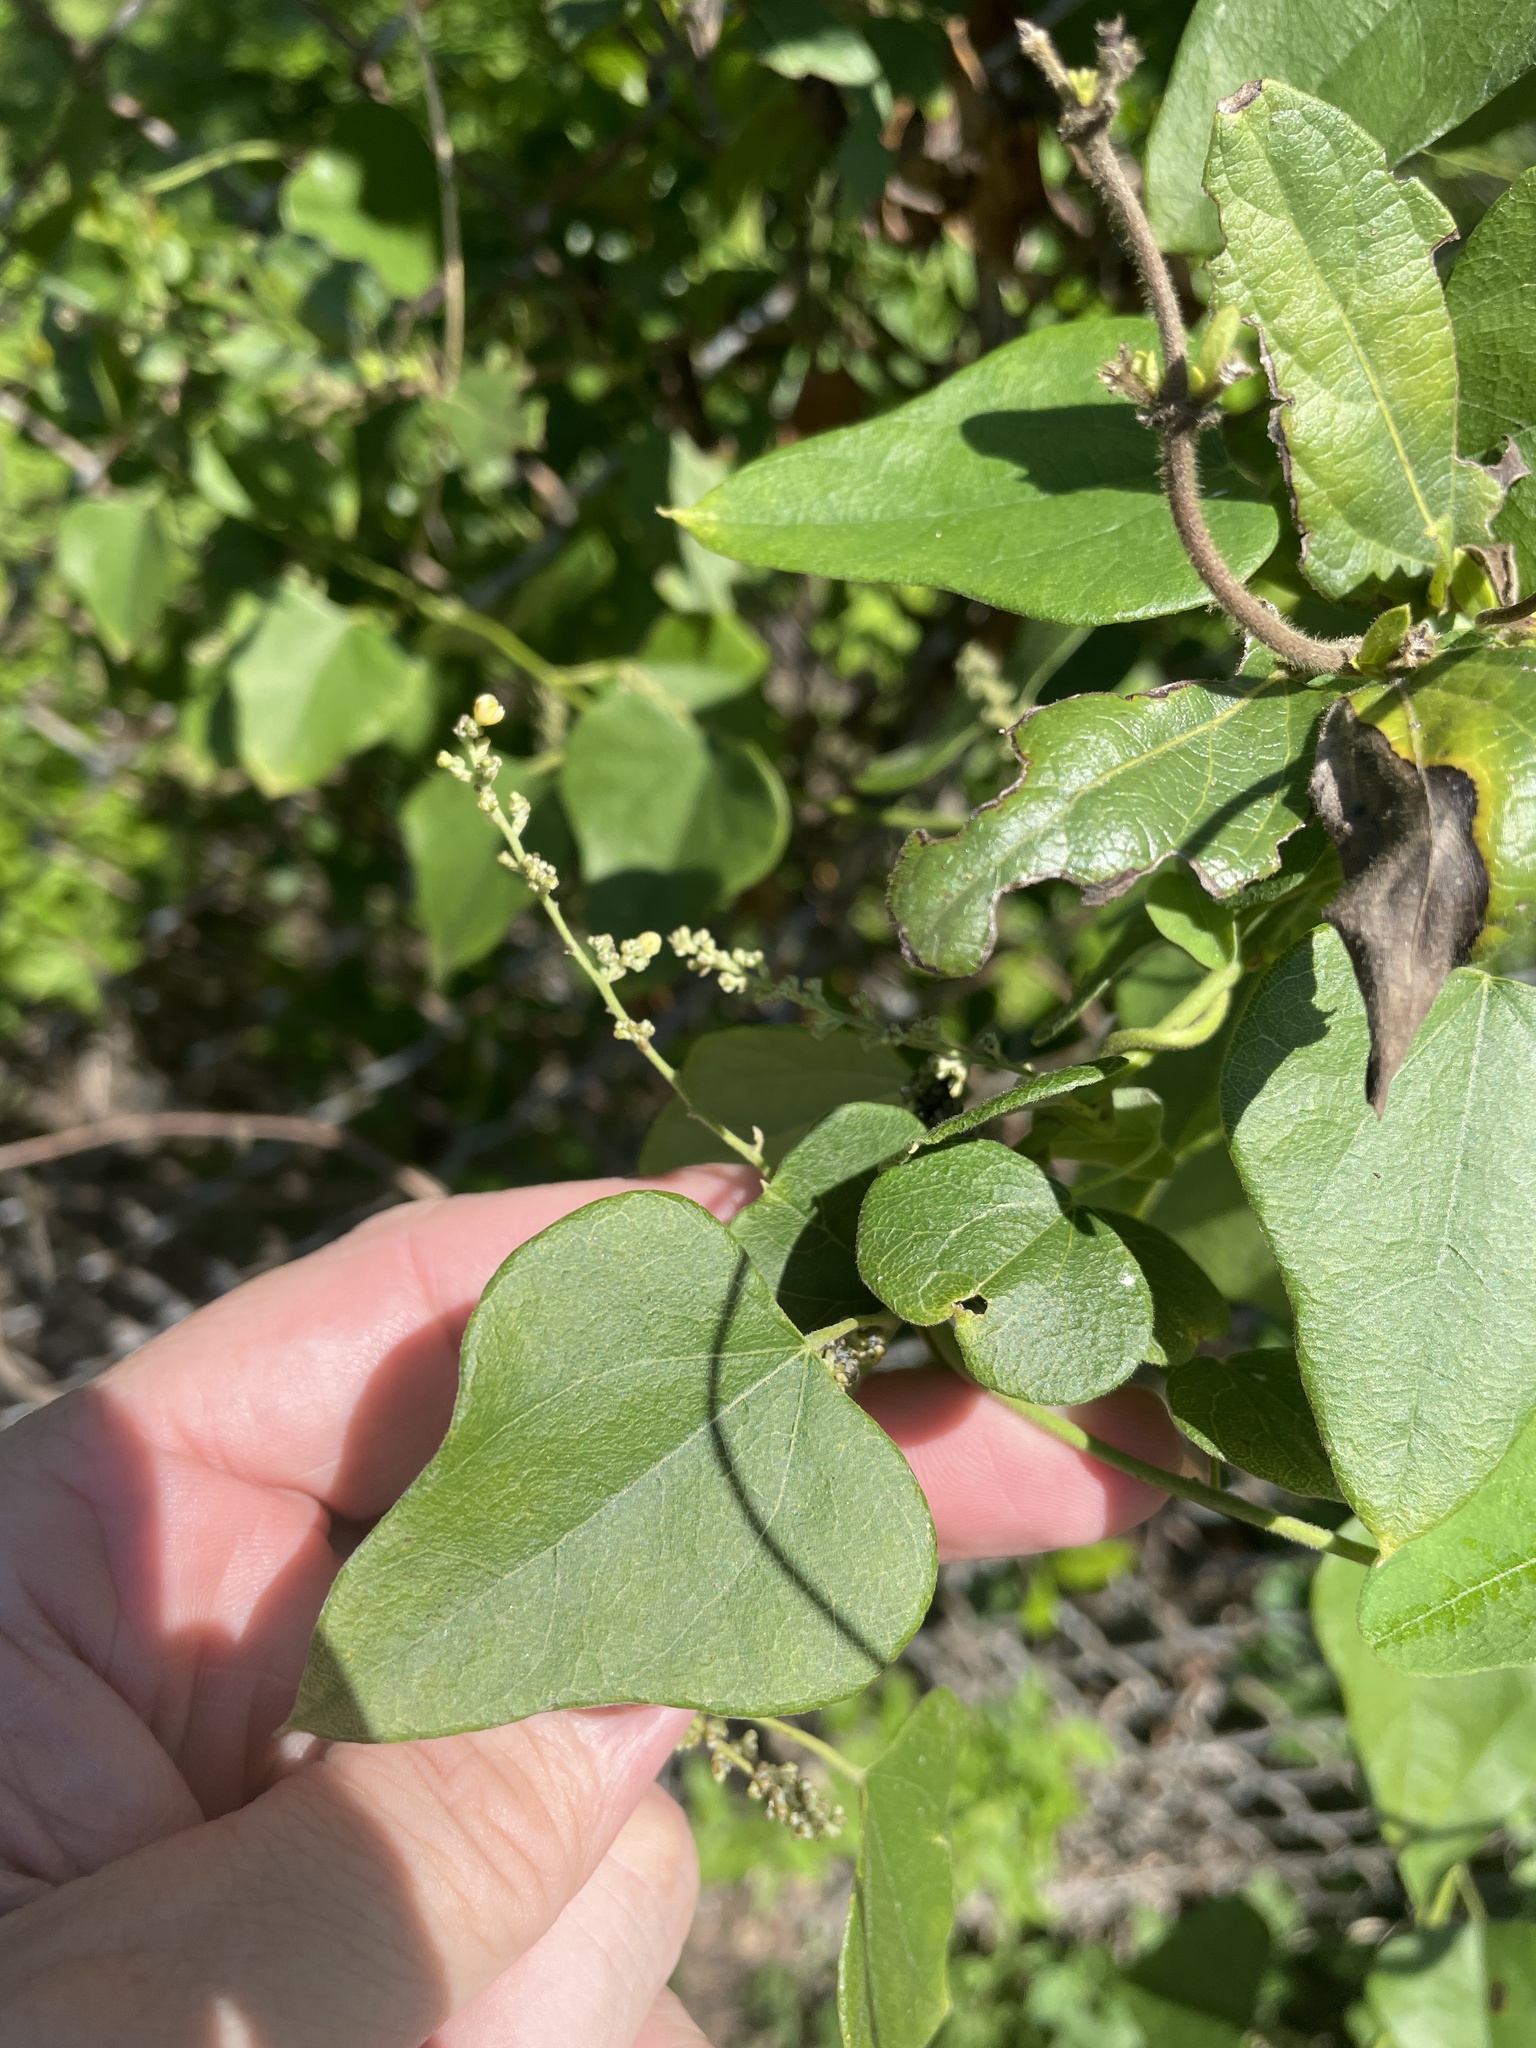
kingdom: Plantae
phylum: Tracheophyta
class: Magnoliopsida
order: Ranunculales
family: Menispermaceae
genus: Cocculus
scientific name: Cocculus carolinus
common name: Carolina moonseed
